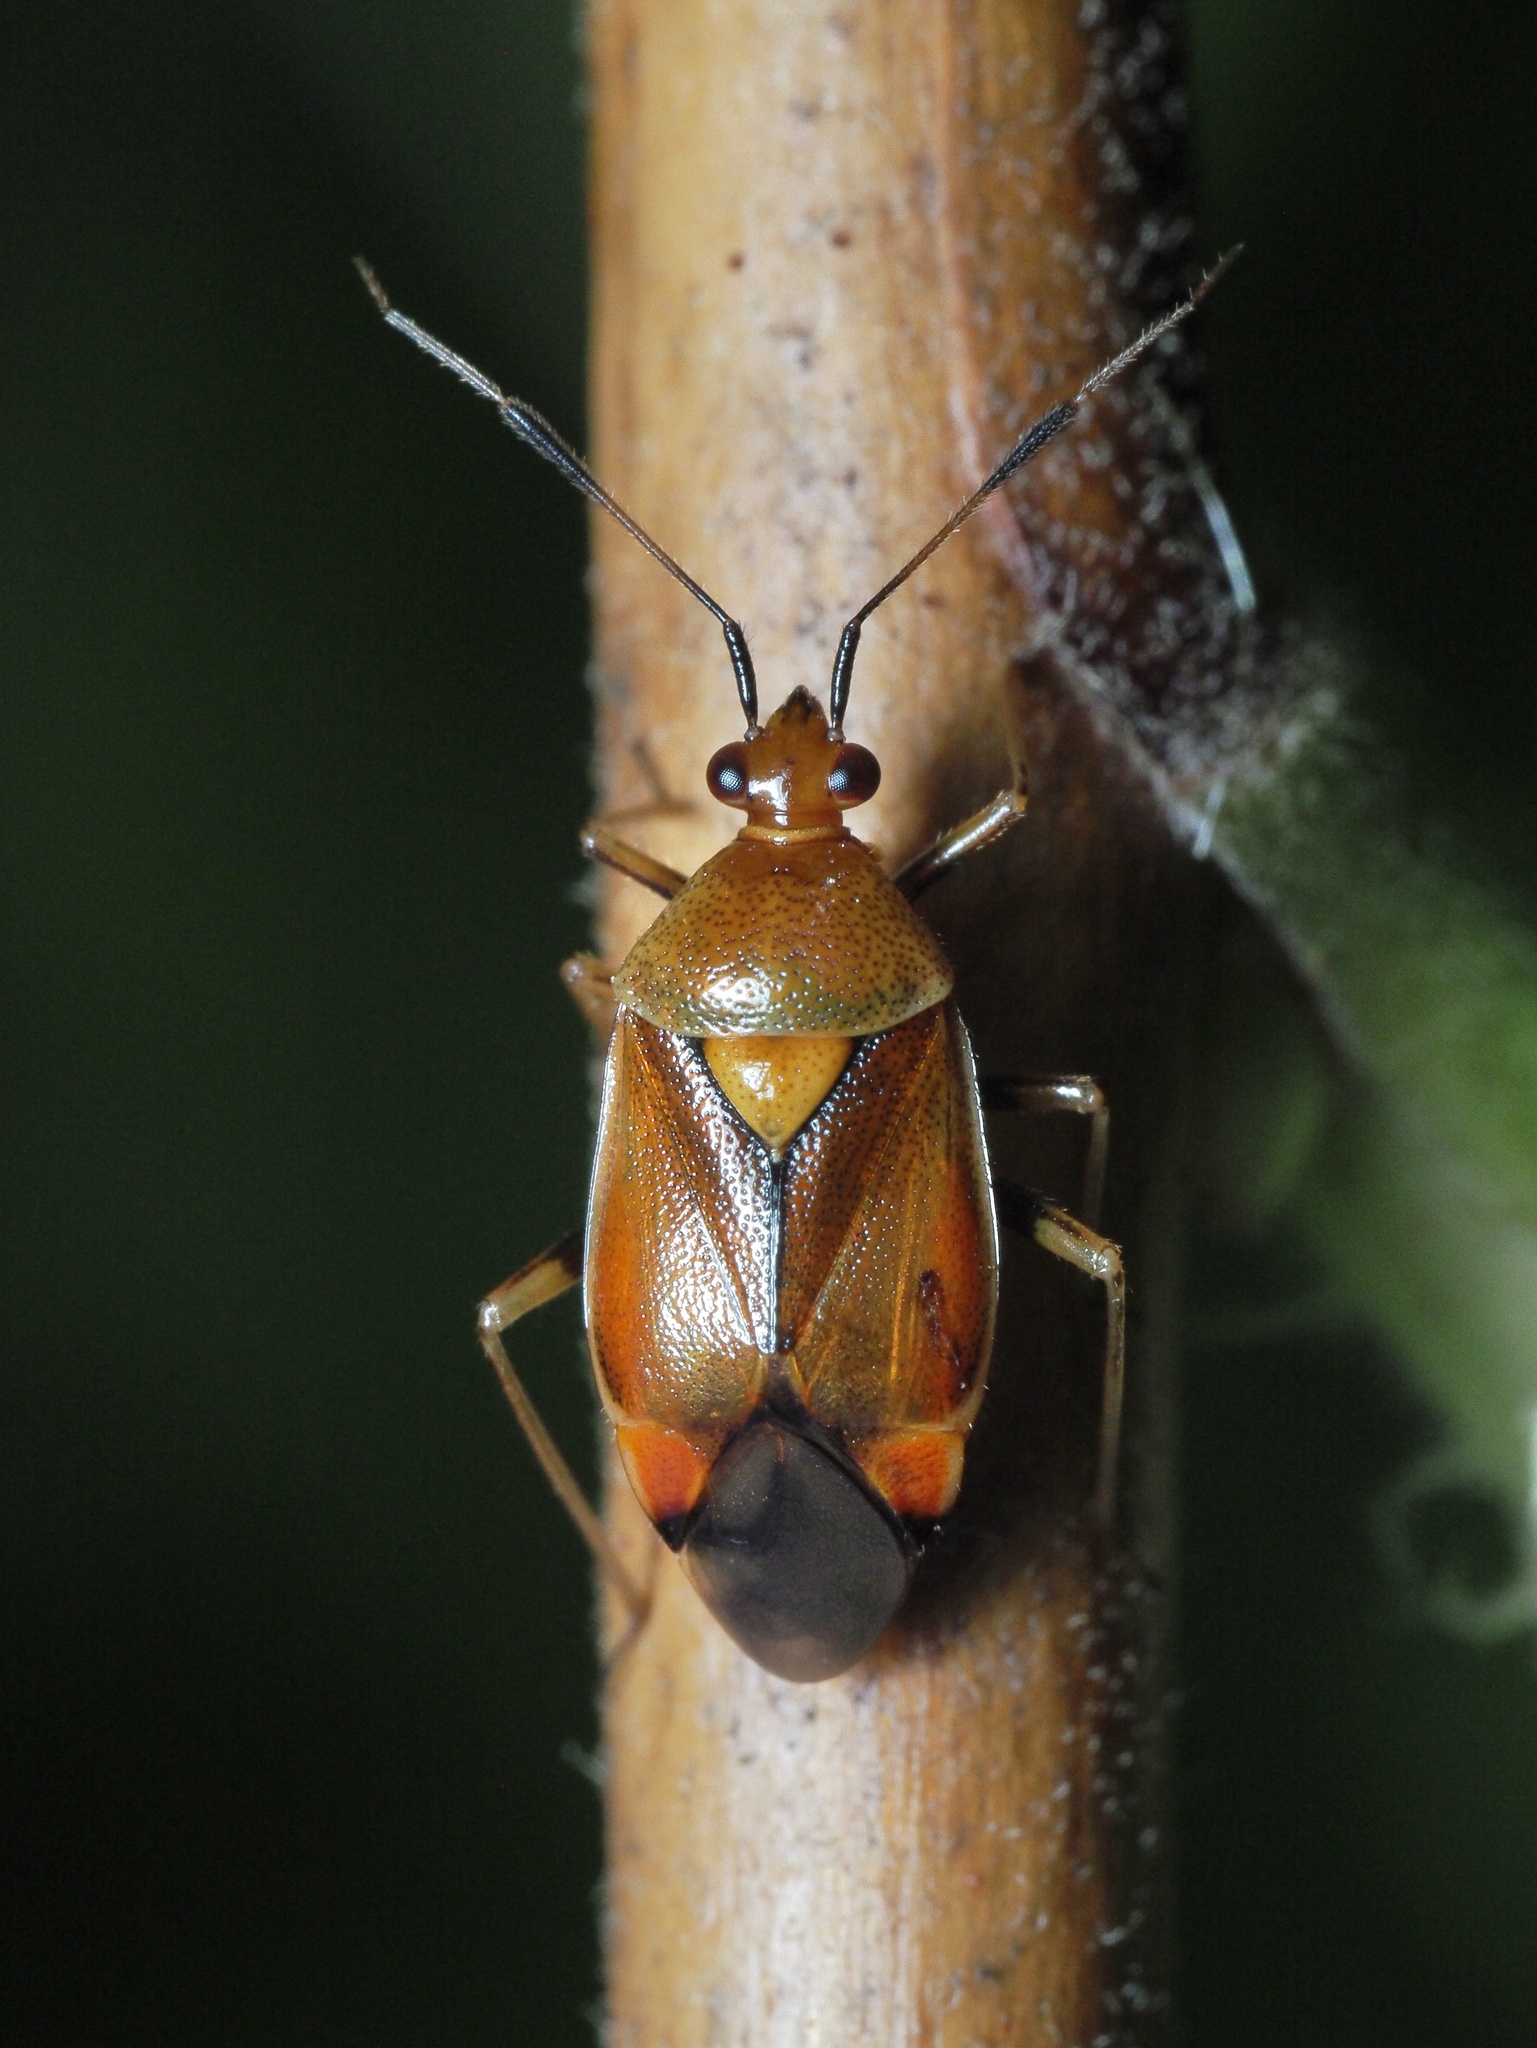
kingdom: Animalia
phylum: Arthropoda
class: Insecta
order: Hemiptera
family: Miridae
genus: Deraeocoris
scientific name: Deraeocoris ruber
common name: Plant bug
